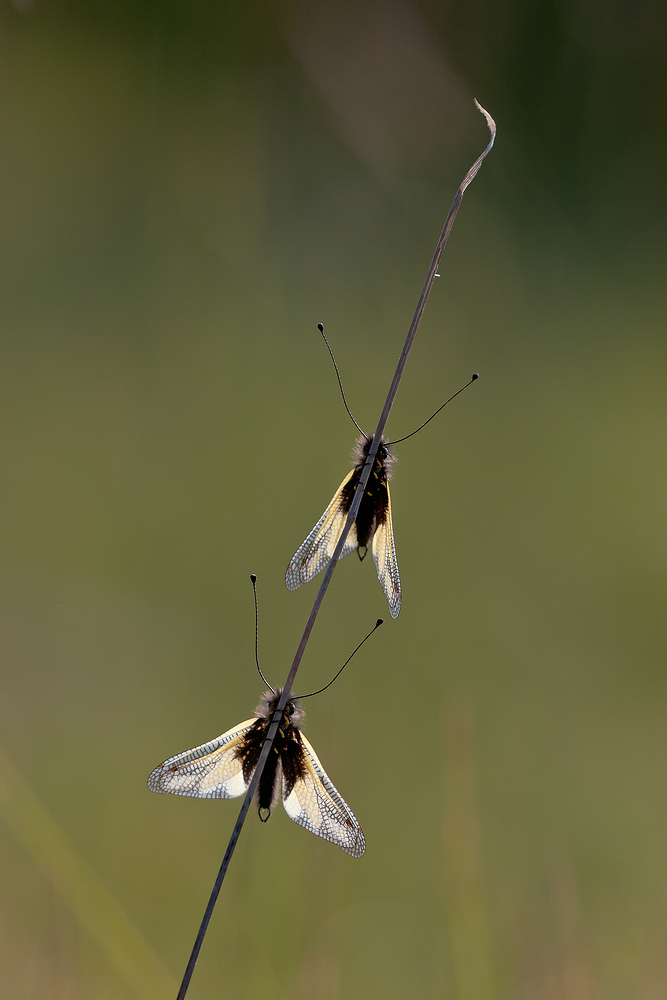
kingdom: Animalia
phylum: Arthropoda
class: Insecta
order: Neuroptera
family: Ascalaphidae
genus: Libelloides
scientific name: Libelloides coccajus
